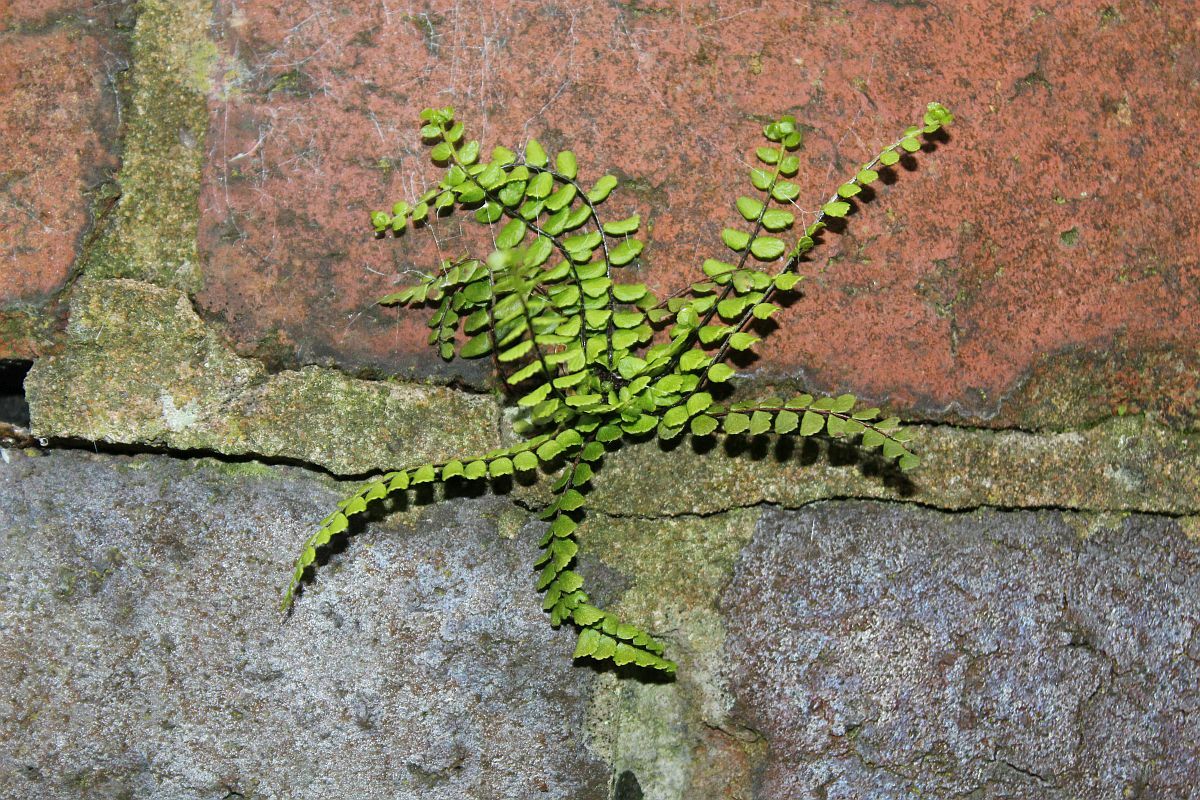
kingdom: Plantae
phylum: Tracheophyta
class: Polypodiopsida
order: Polypodiales
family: Aspleniaceae
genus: Asplenium
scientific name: Asplenium trichomanes
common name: Maidenhair spleenwort
